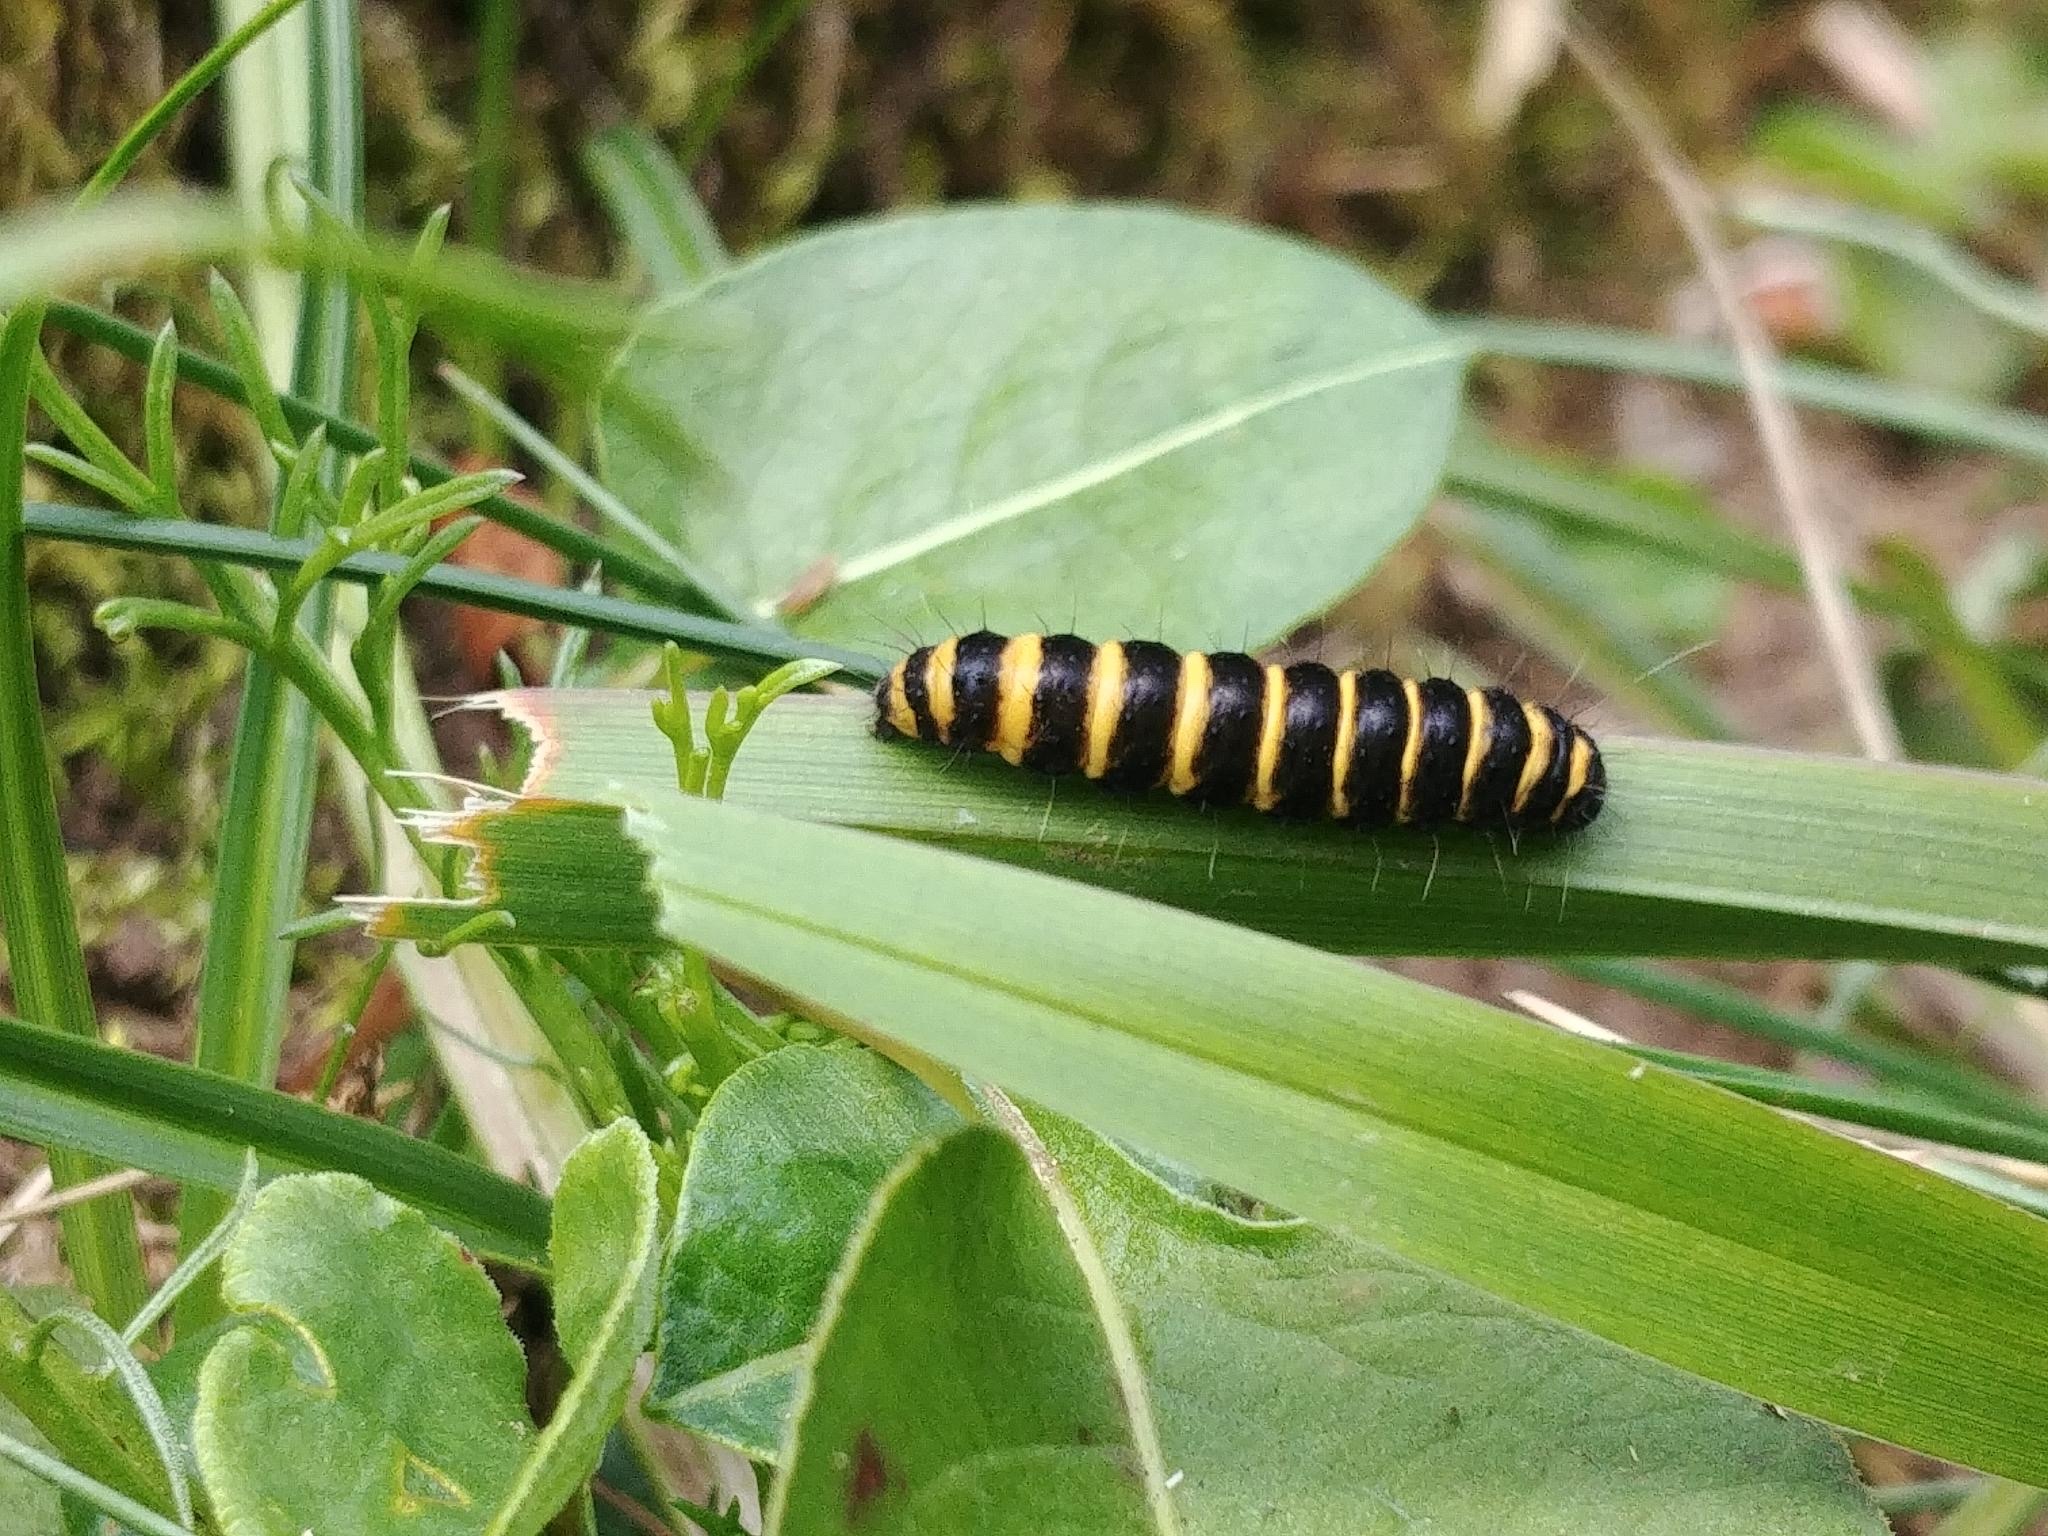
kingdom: Animalia
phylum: Arthropoda
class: Insecta
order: Lepidoptera
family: Erebidae
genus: Tyria
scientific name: Tyria jacobaeae
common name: Cinnabar
